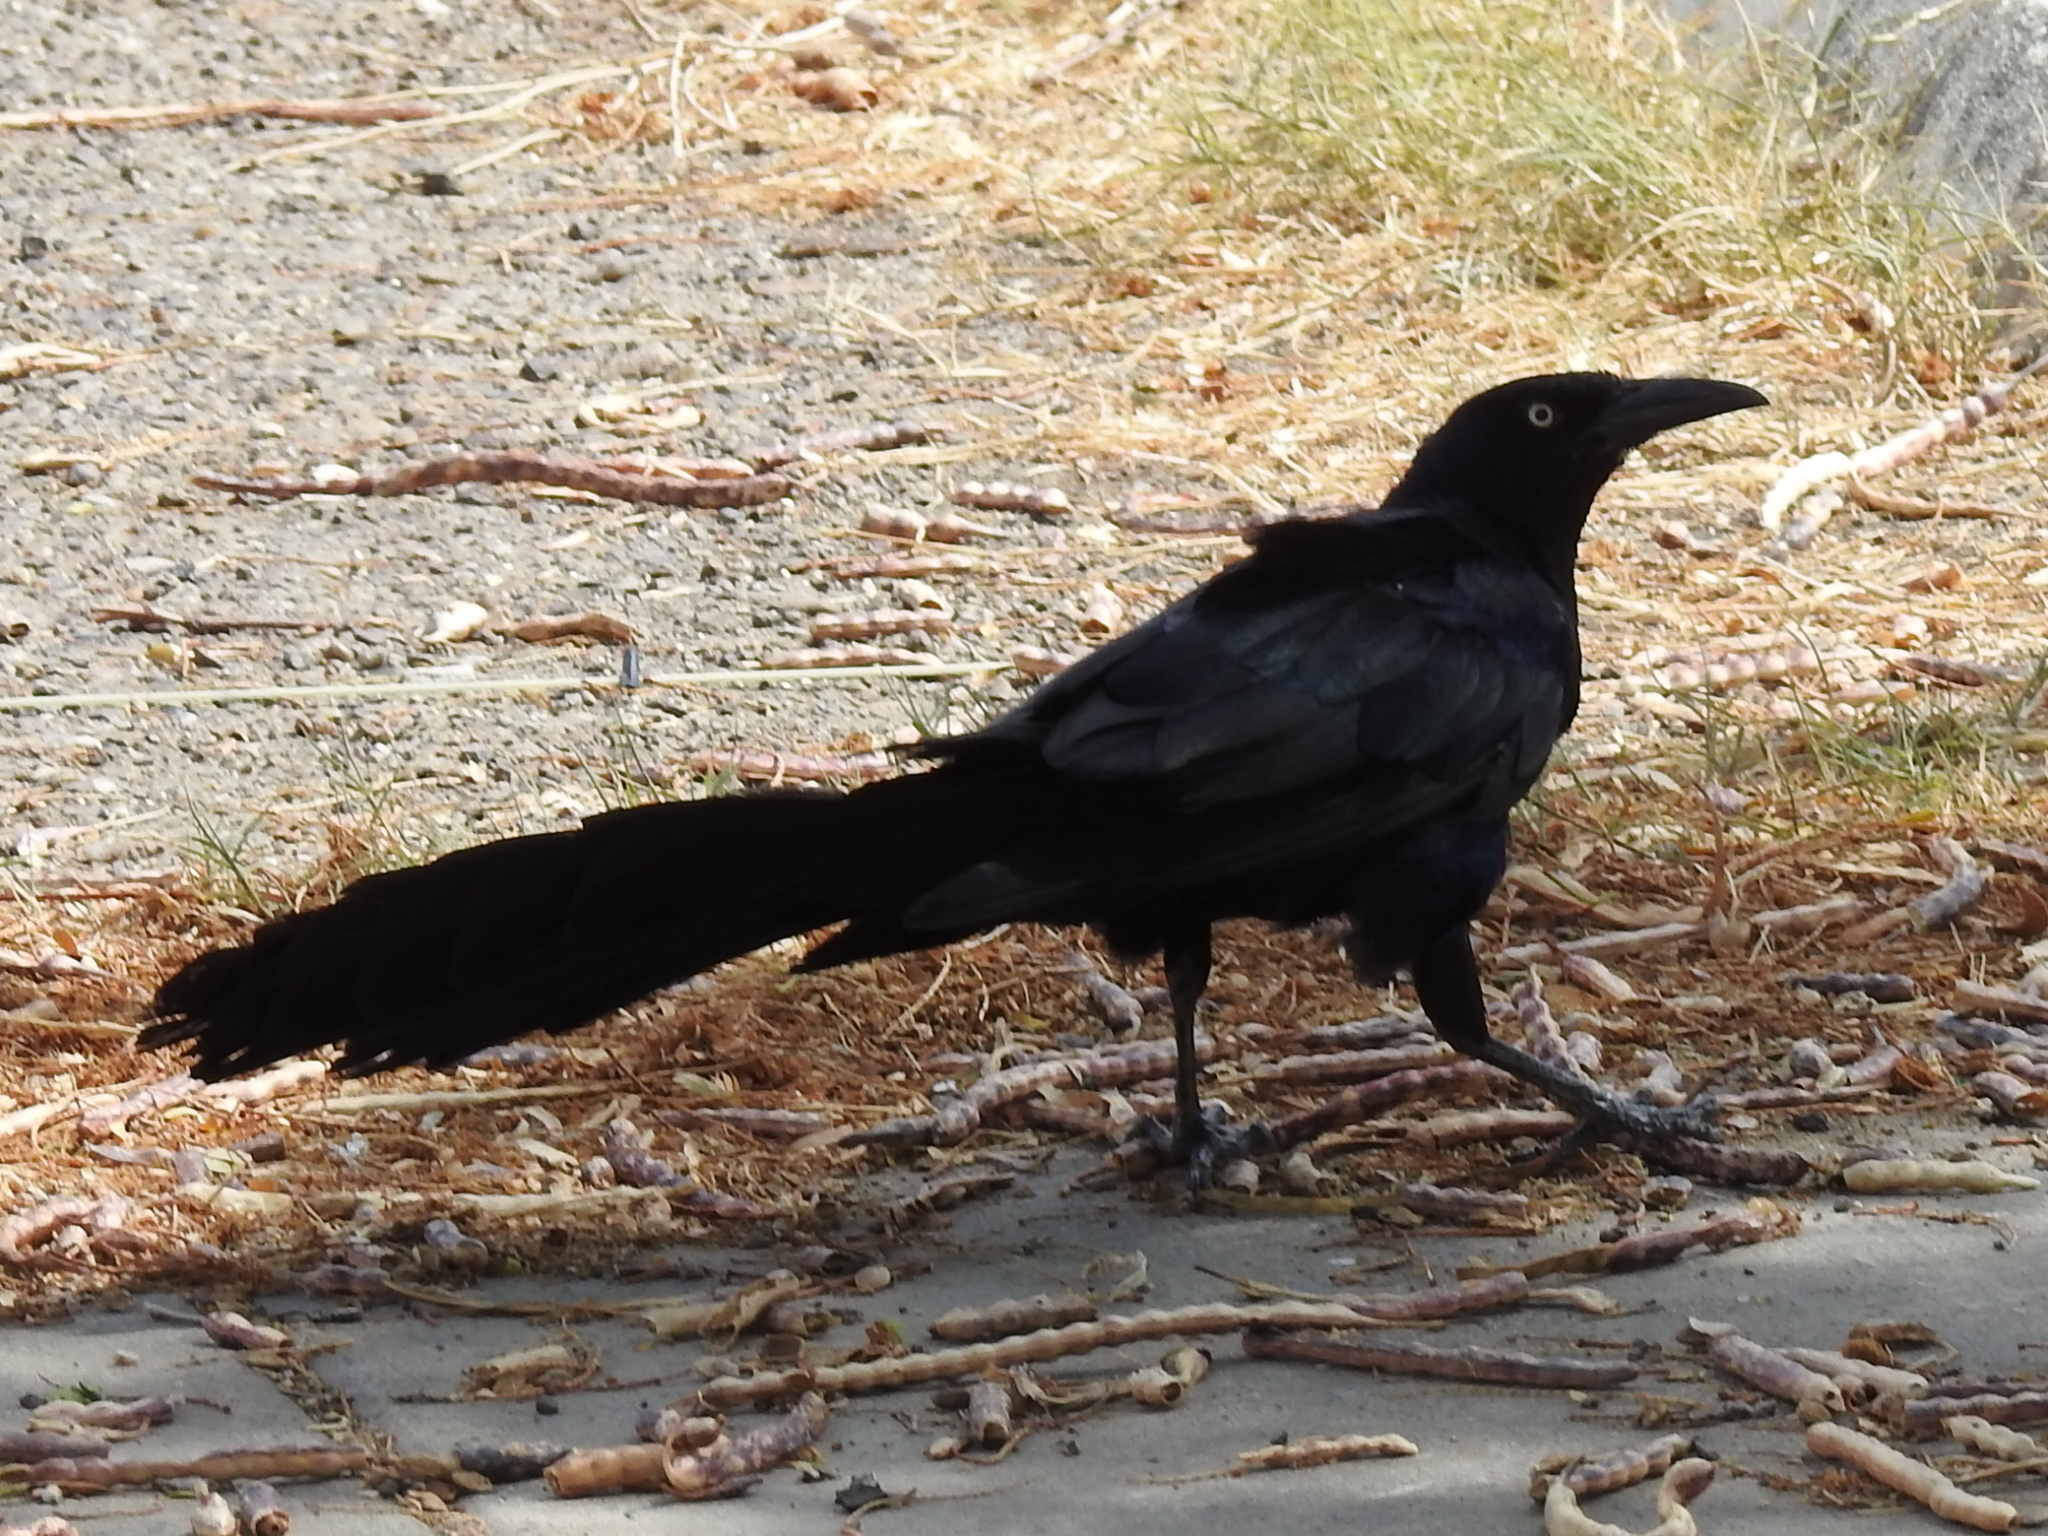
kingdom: Animalia
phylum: Chordata
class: Aves
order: Passeriformes
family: Icteridae
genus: Quiscalus
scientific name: Quiscalus mexicanus
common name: Great-tailed grackle
